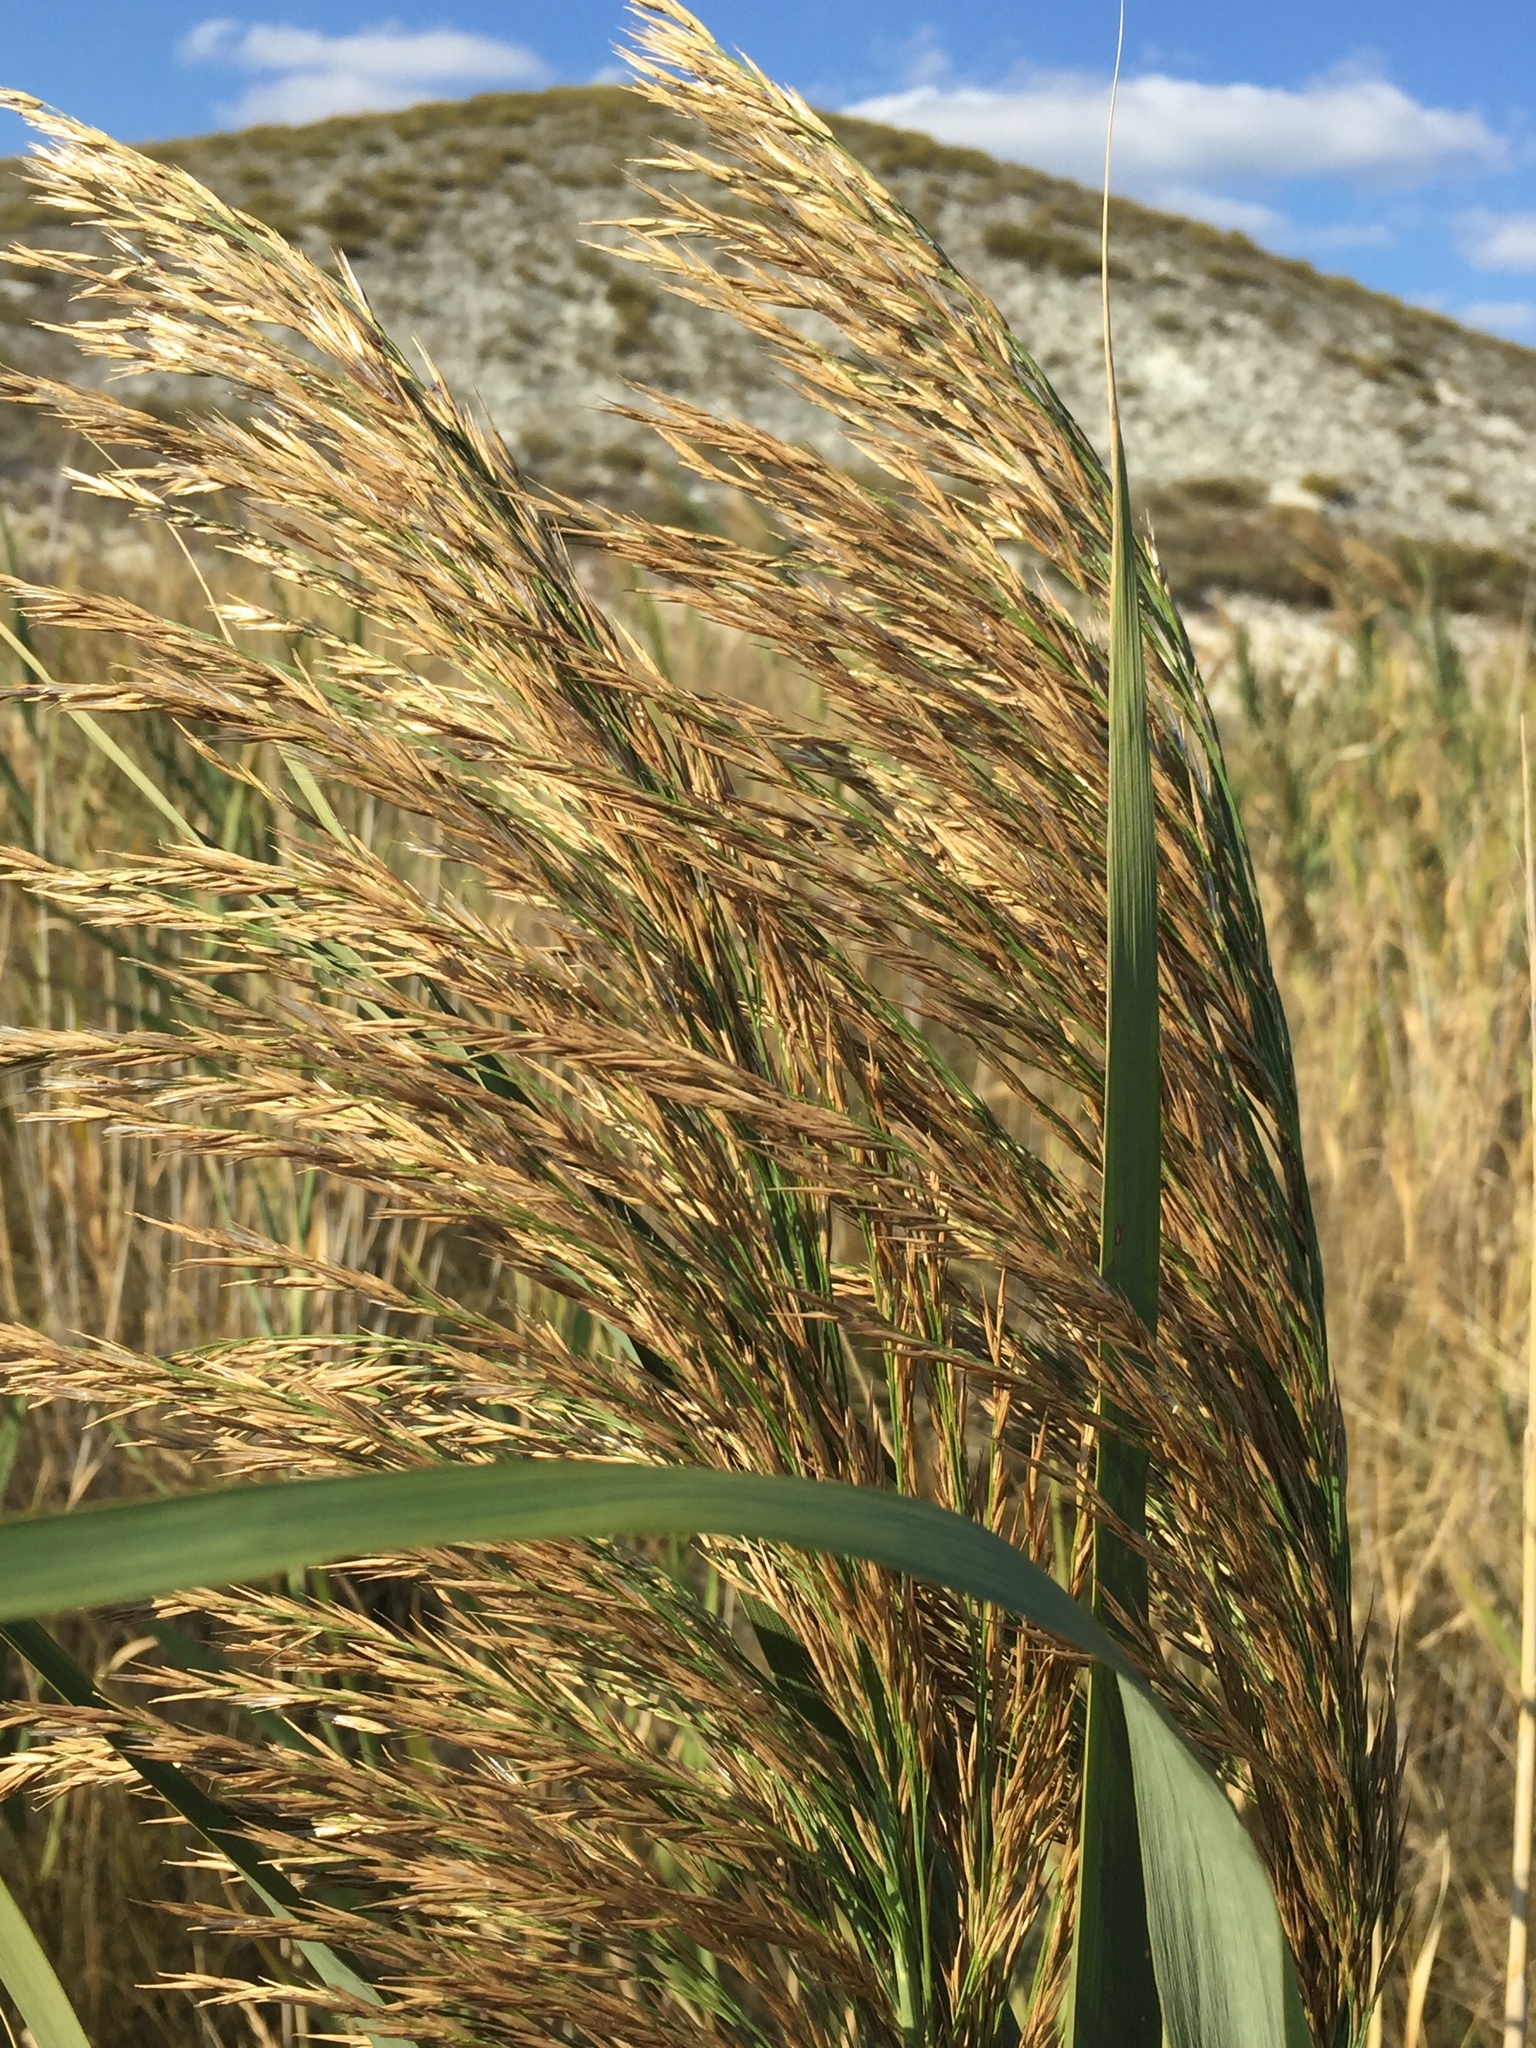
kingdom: Plantae
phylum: Tracheophyta
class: Liliopsida
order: Poales
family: Poaceae
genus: Phragmites
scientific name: Phragmites australis
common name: Common reed
